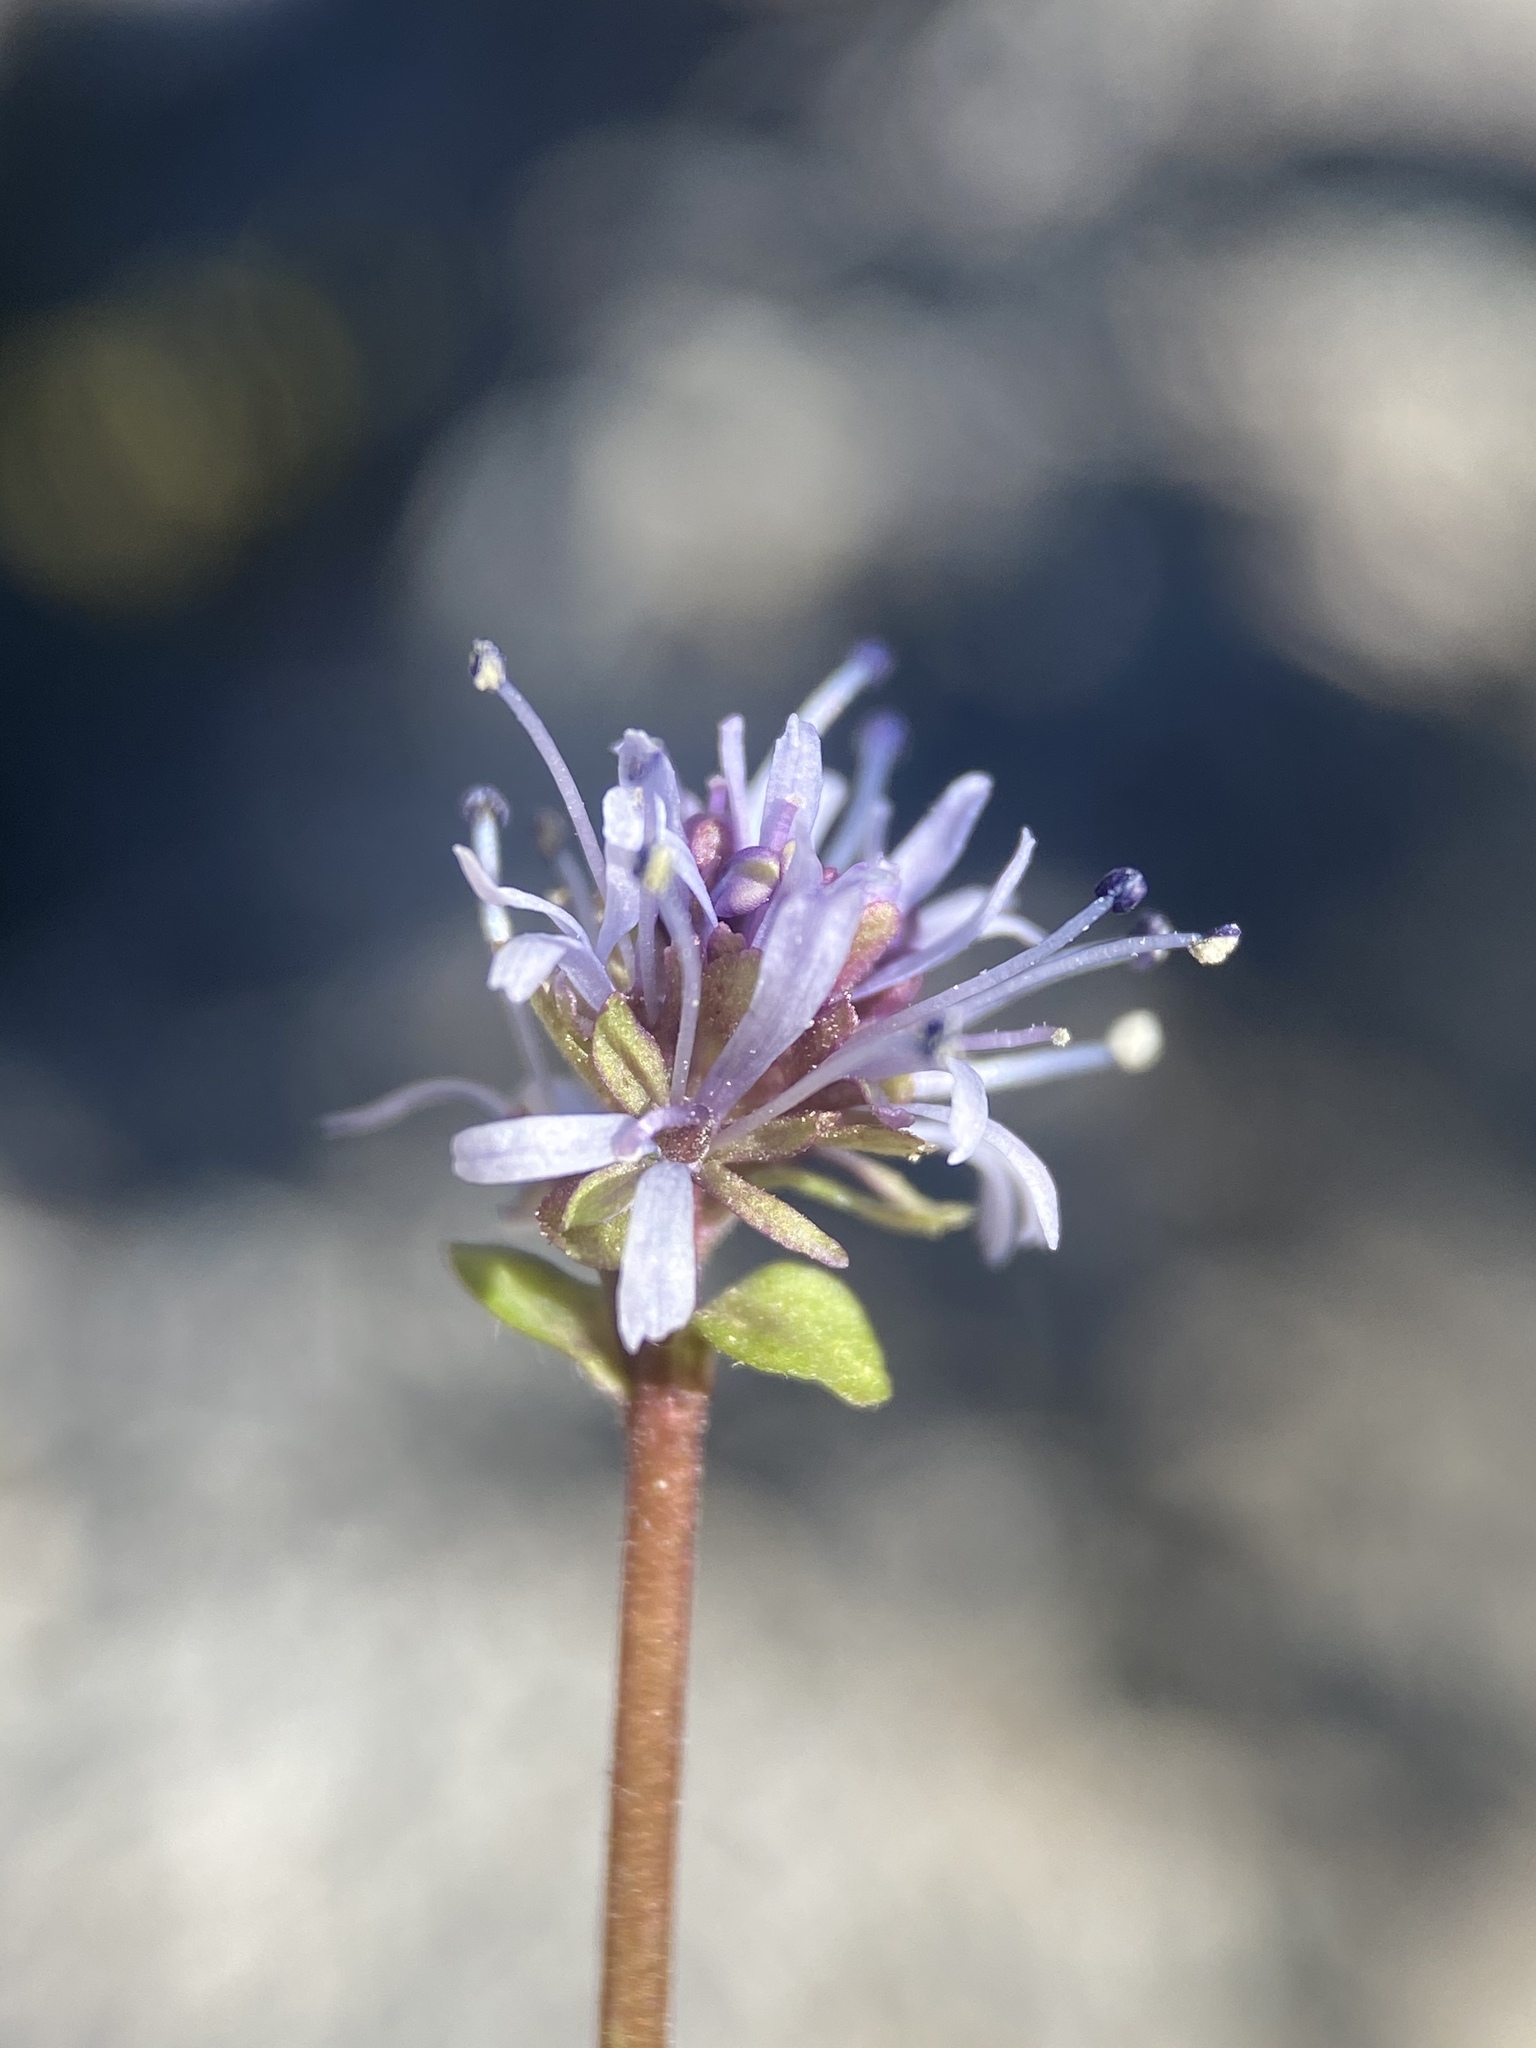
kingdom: Plantae
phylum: Tracheophyta
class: Magnoliopsida
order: Lamiales
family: Plantaginaceae
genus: Synthyris
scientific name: Synthyris ranunculina
